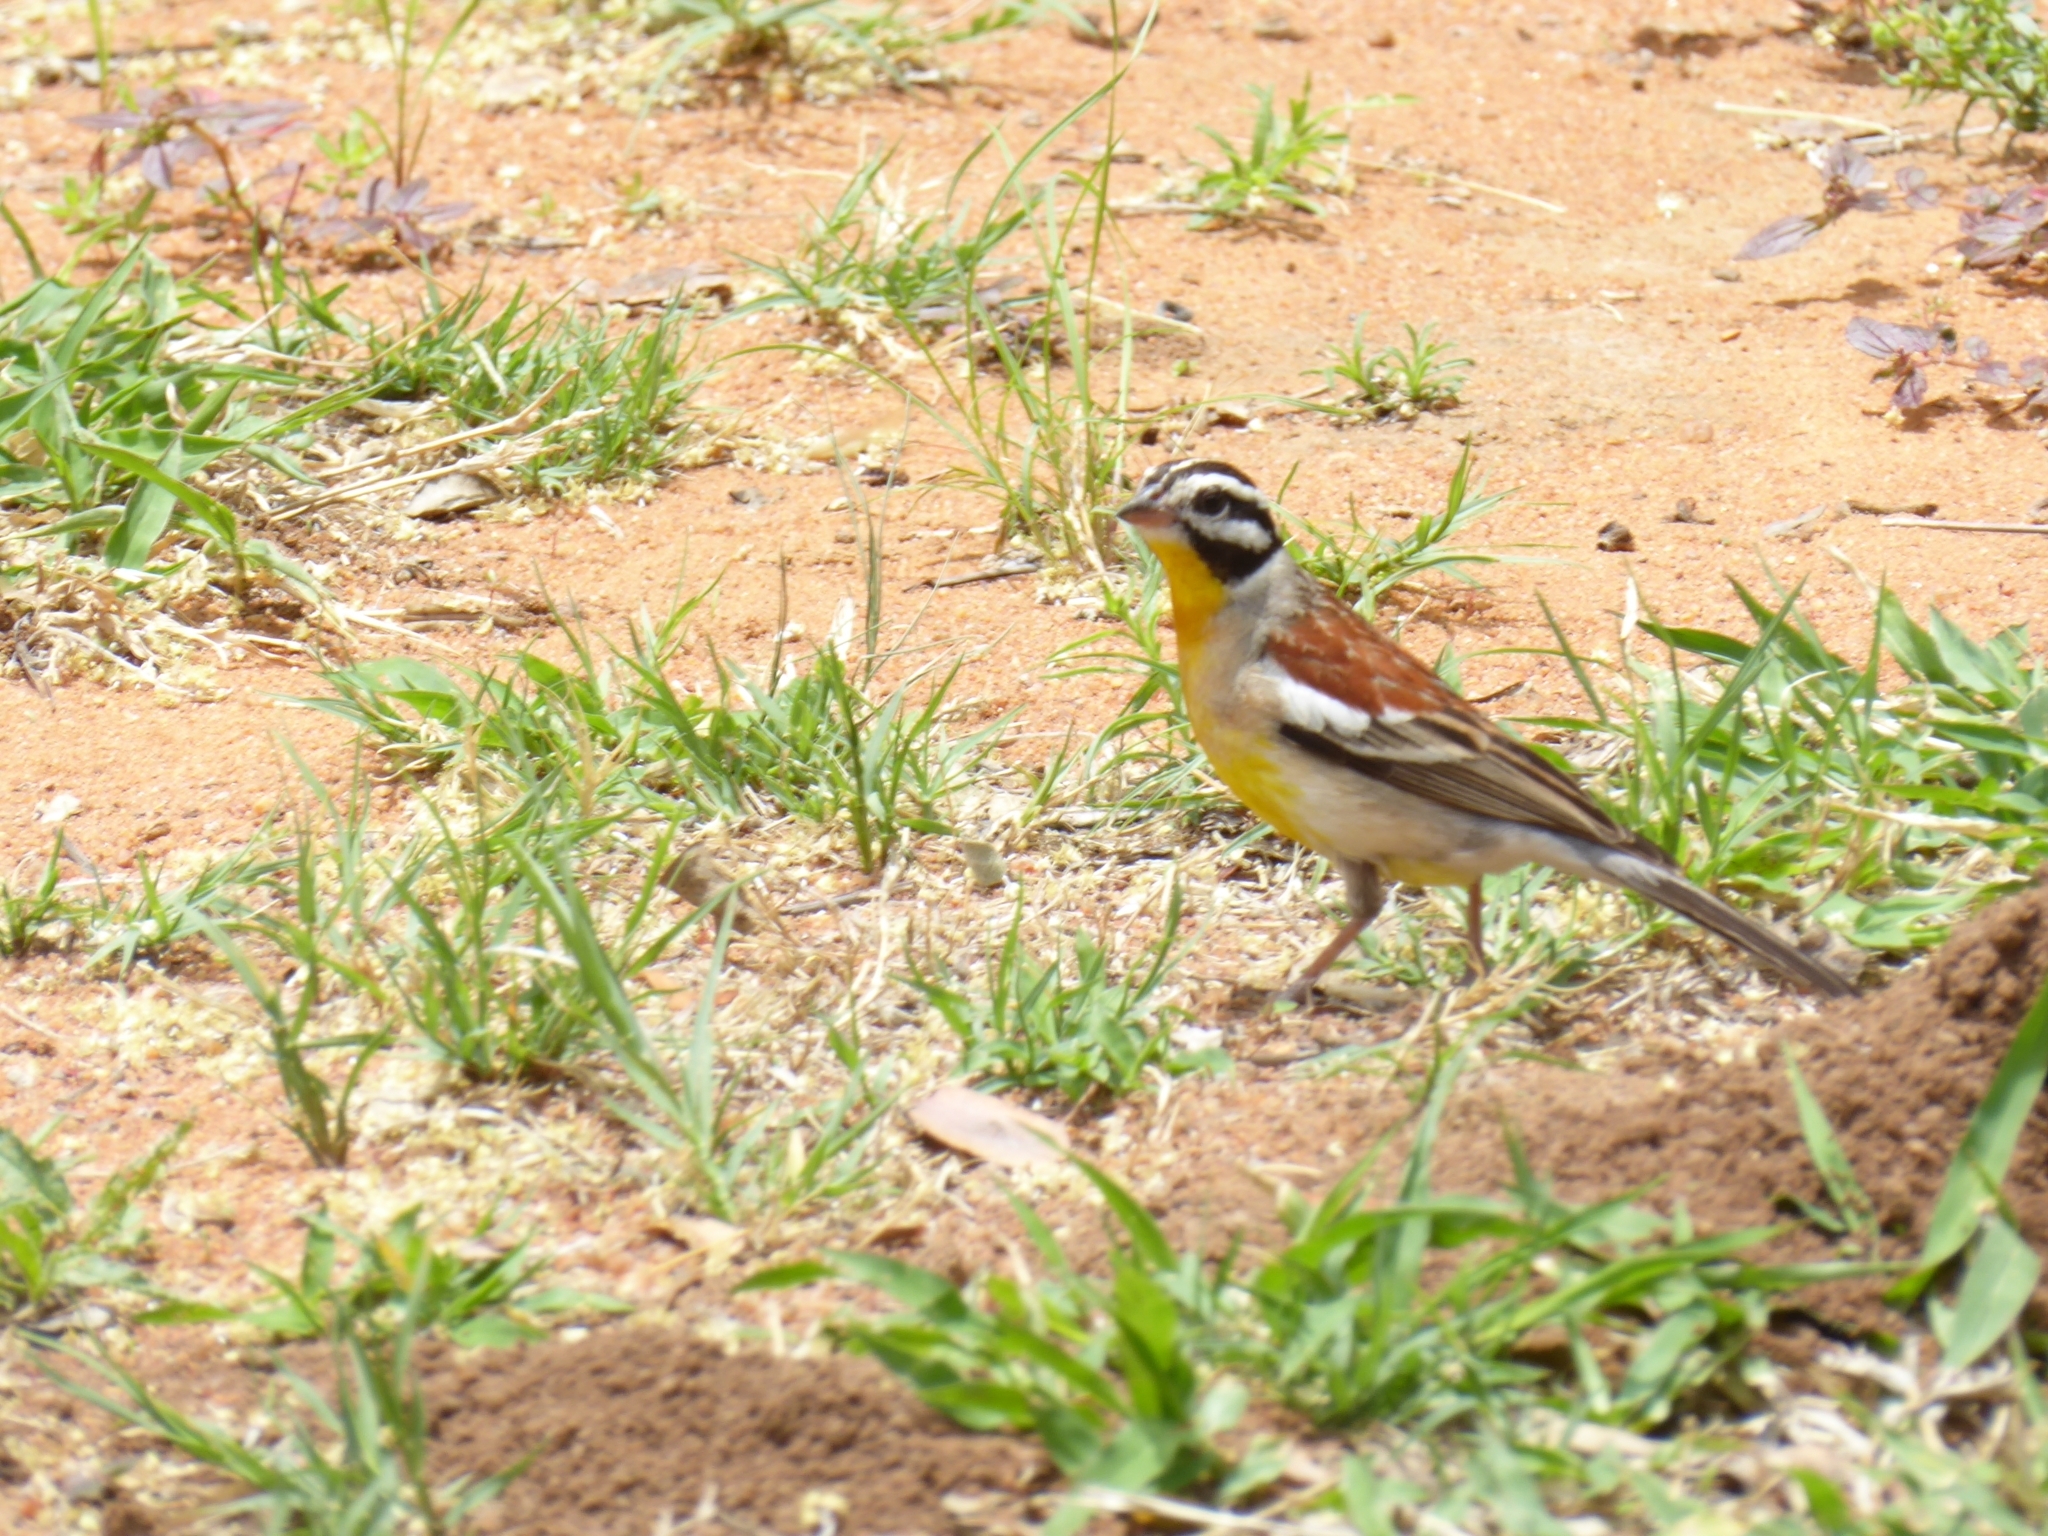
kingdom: Animalia
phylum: Chordata
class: Aves
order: Passeriformes
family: Emberizidae
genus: Emberiza
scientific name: Emberiza flaviventris
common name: Golden-breasted bunting
